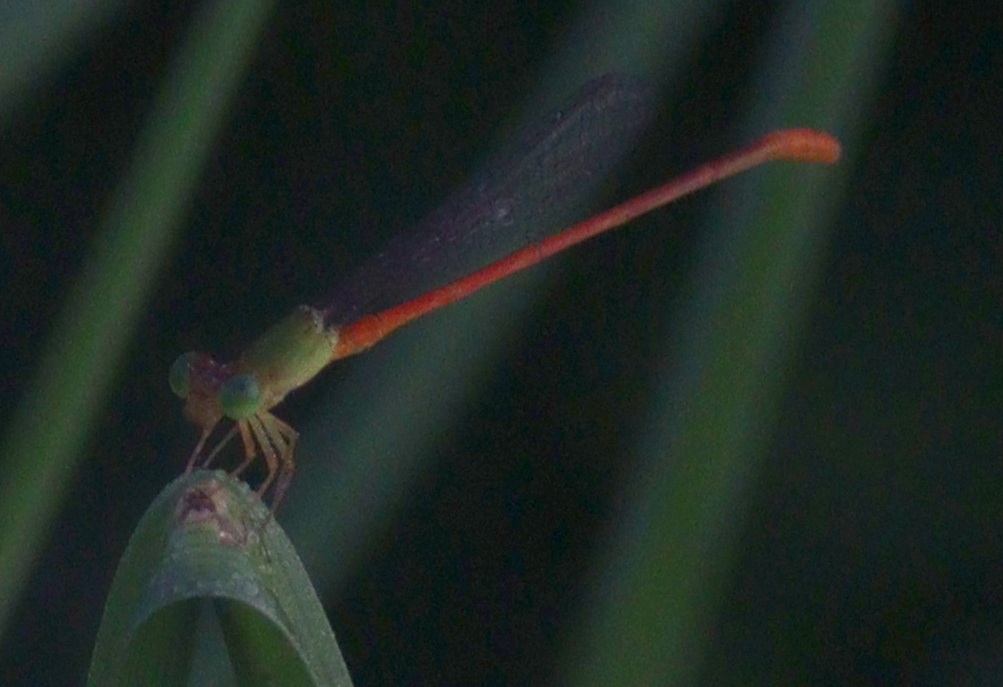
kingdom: Animalia
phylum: Arthropoda
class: Insecta
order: Odonata
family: Coenagrionidae
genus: Ceriagrion
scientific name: Ceriagrion auranticum
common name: Orange-tailed sprite
